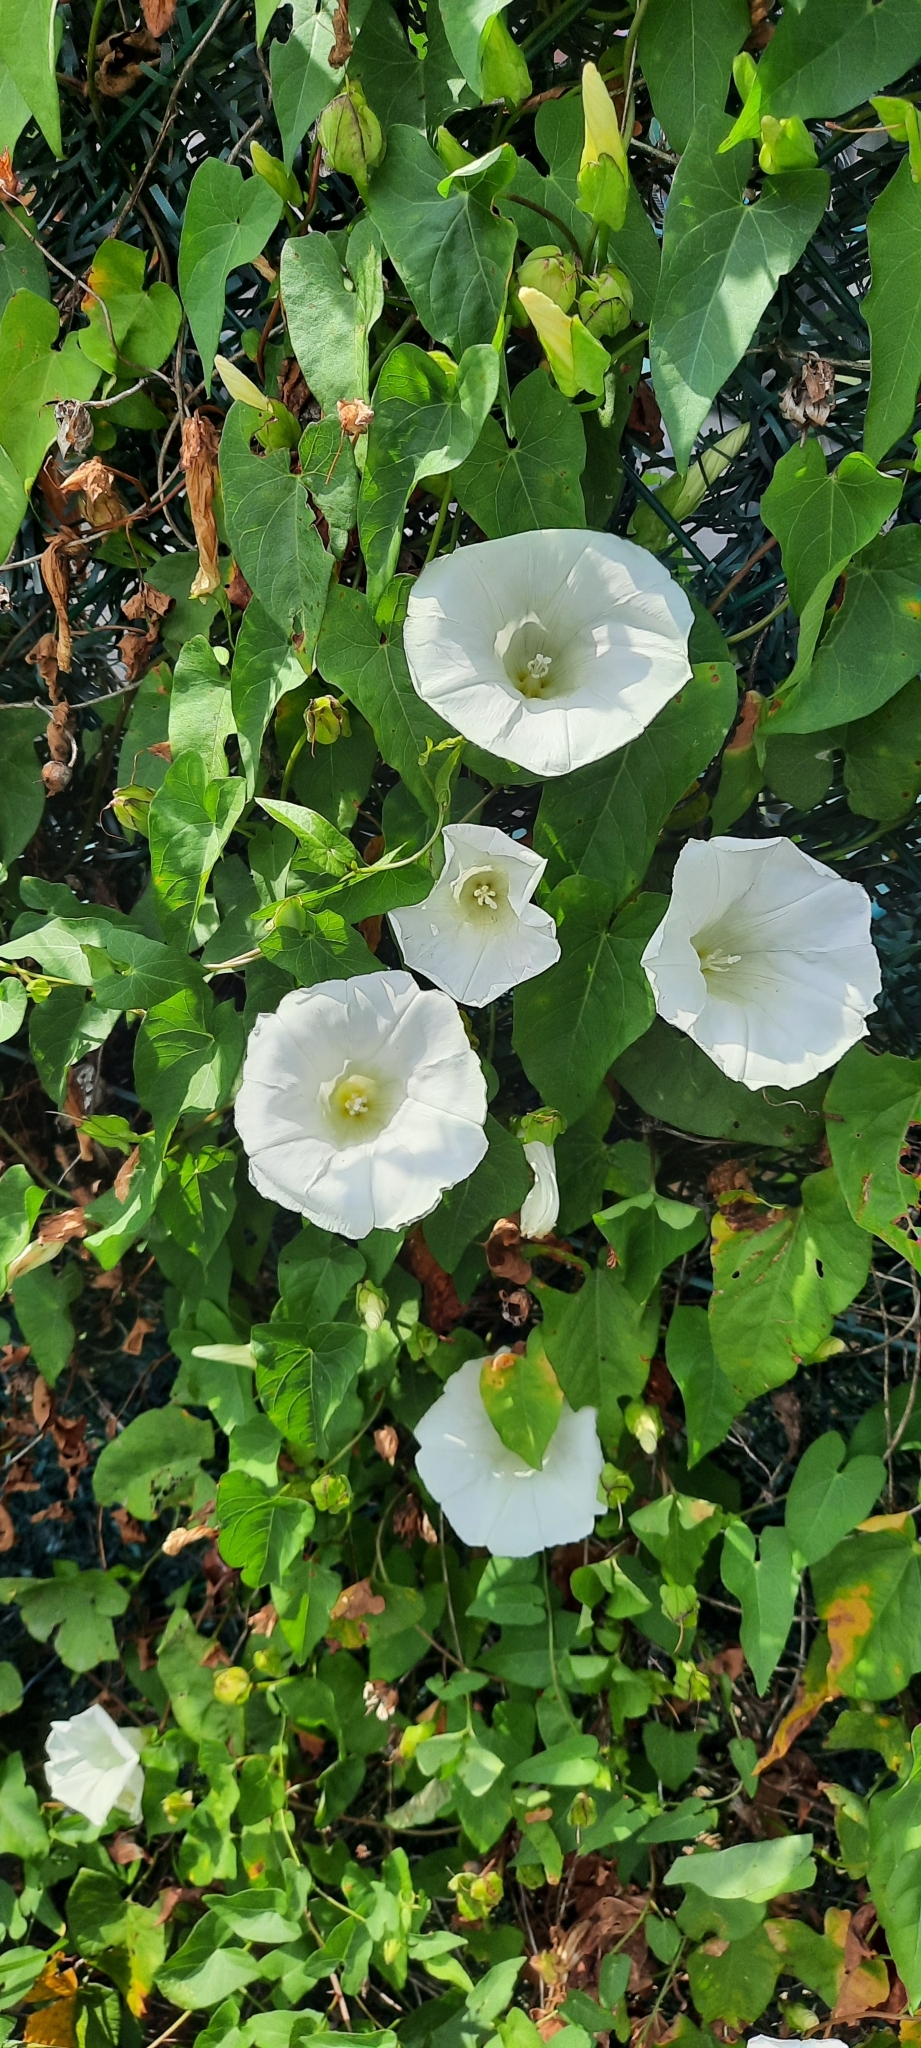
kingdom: Plantae
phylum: Tracheophyta
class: Magnoliopsida
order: Solanales
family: Convolvulaceae
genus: Calystegia
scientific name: Calystegia sepium
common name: Hedge bindweed
